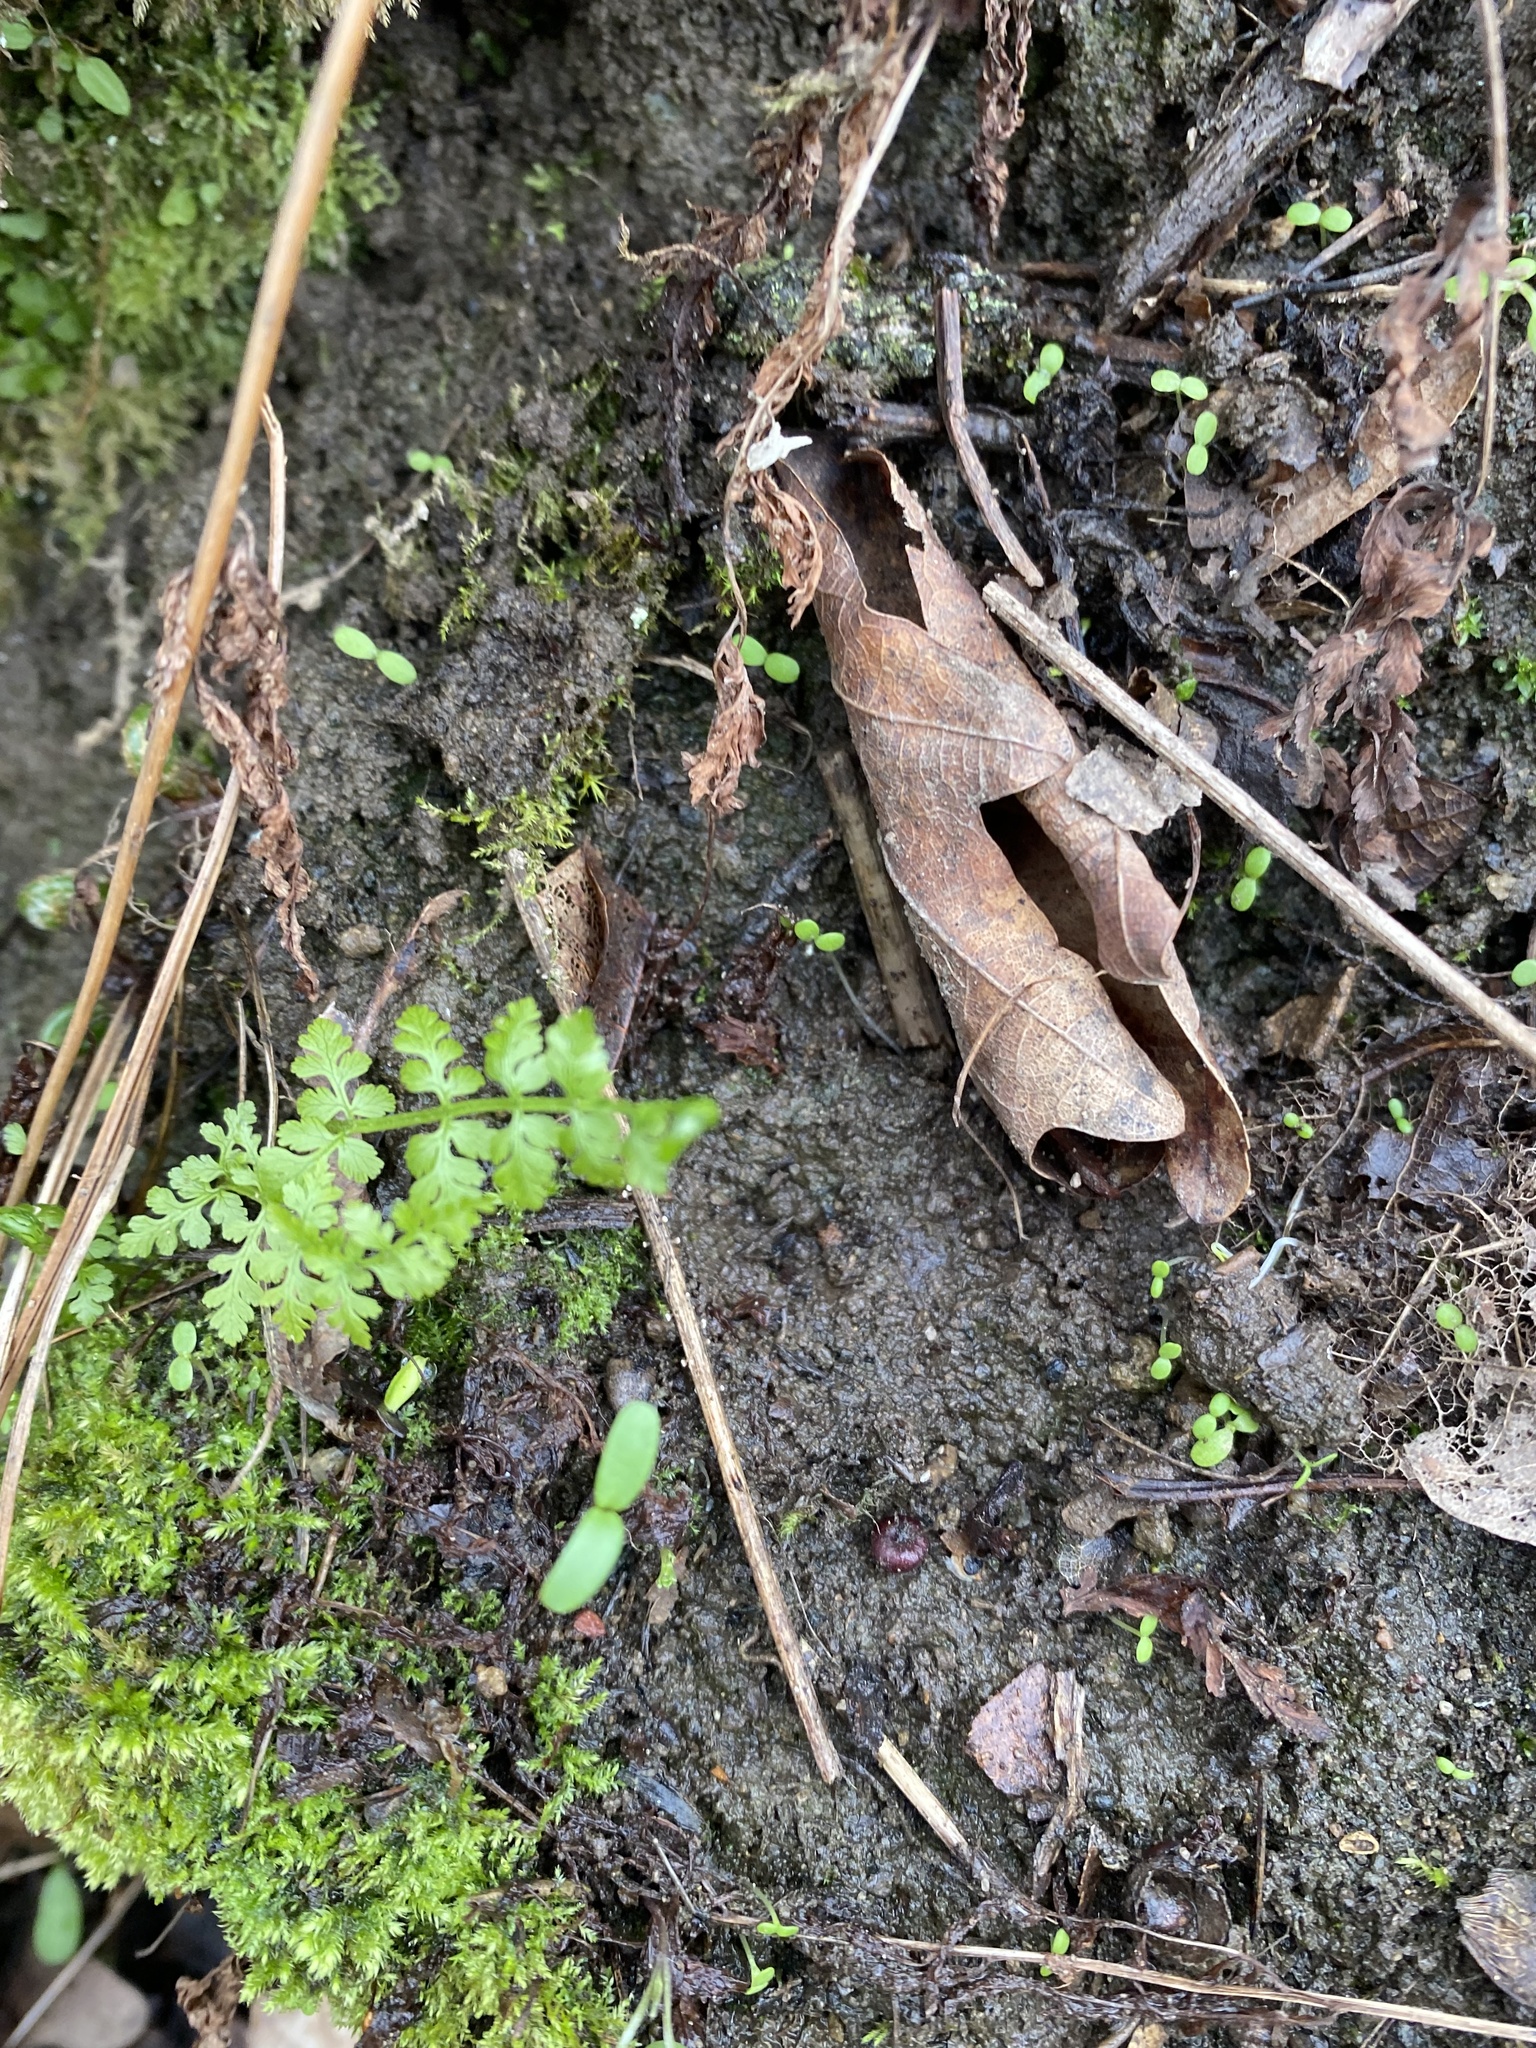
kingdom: Plantae
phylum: Tracheophyta
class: Polypodiopsida
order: Polypodiales
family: Cystopteridaceae
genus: Cystopteris
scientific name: Cystopteris fragilis
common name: Brittle bladder fern
